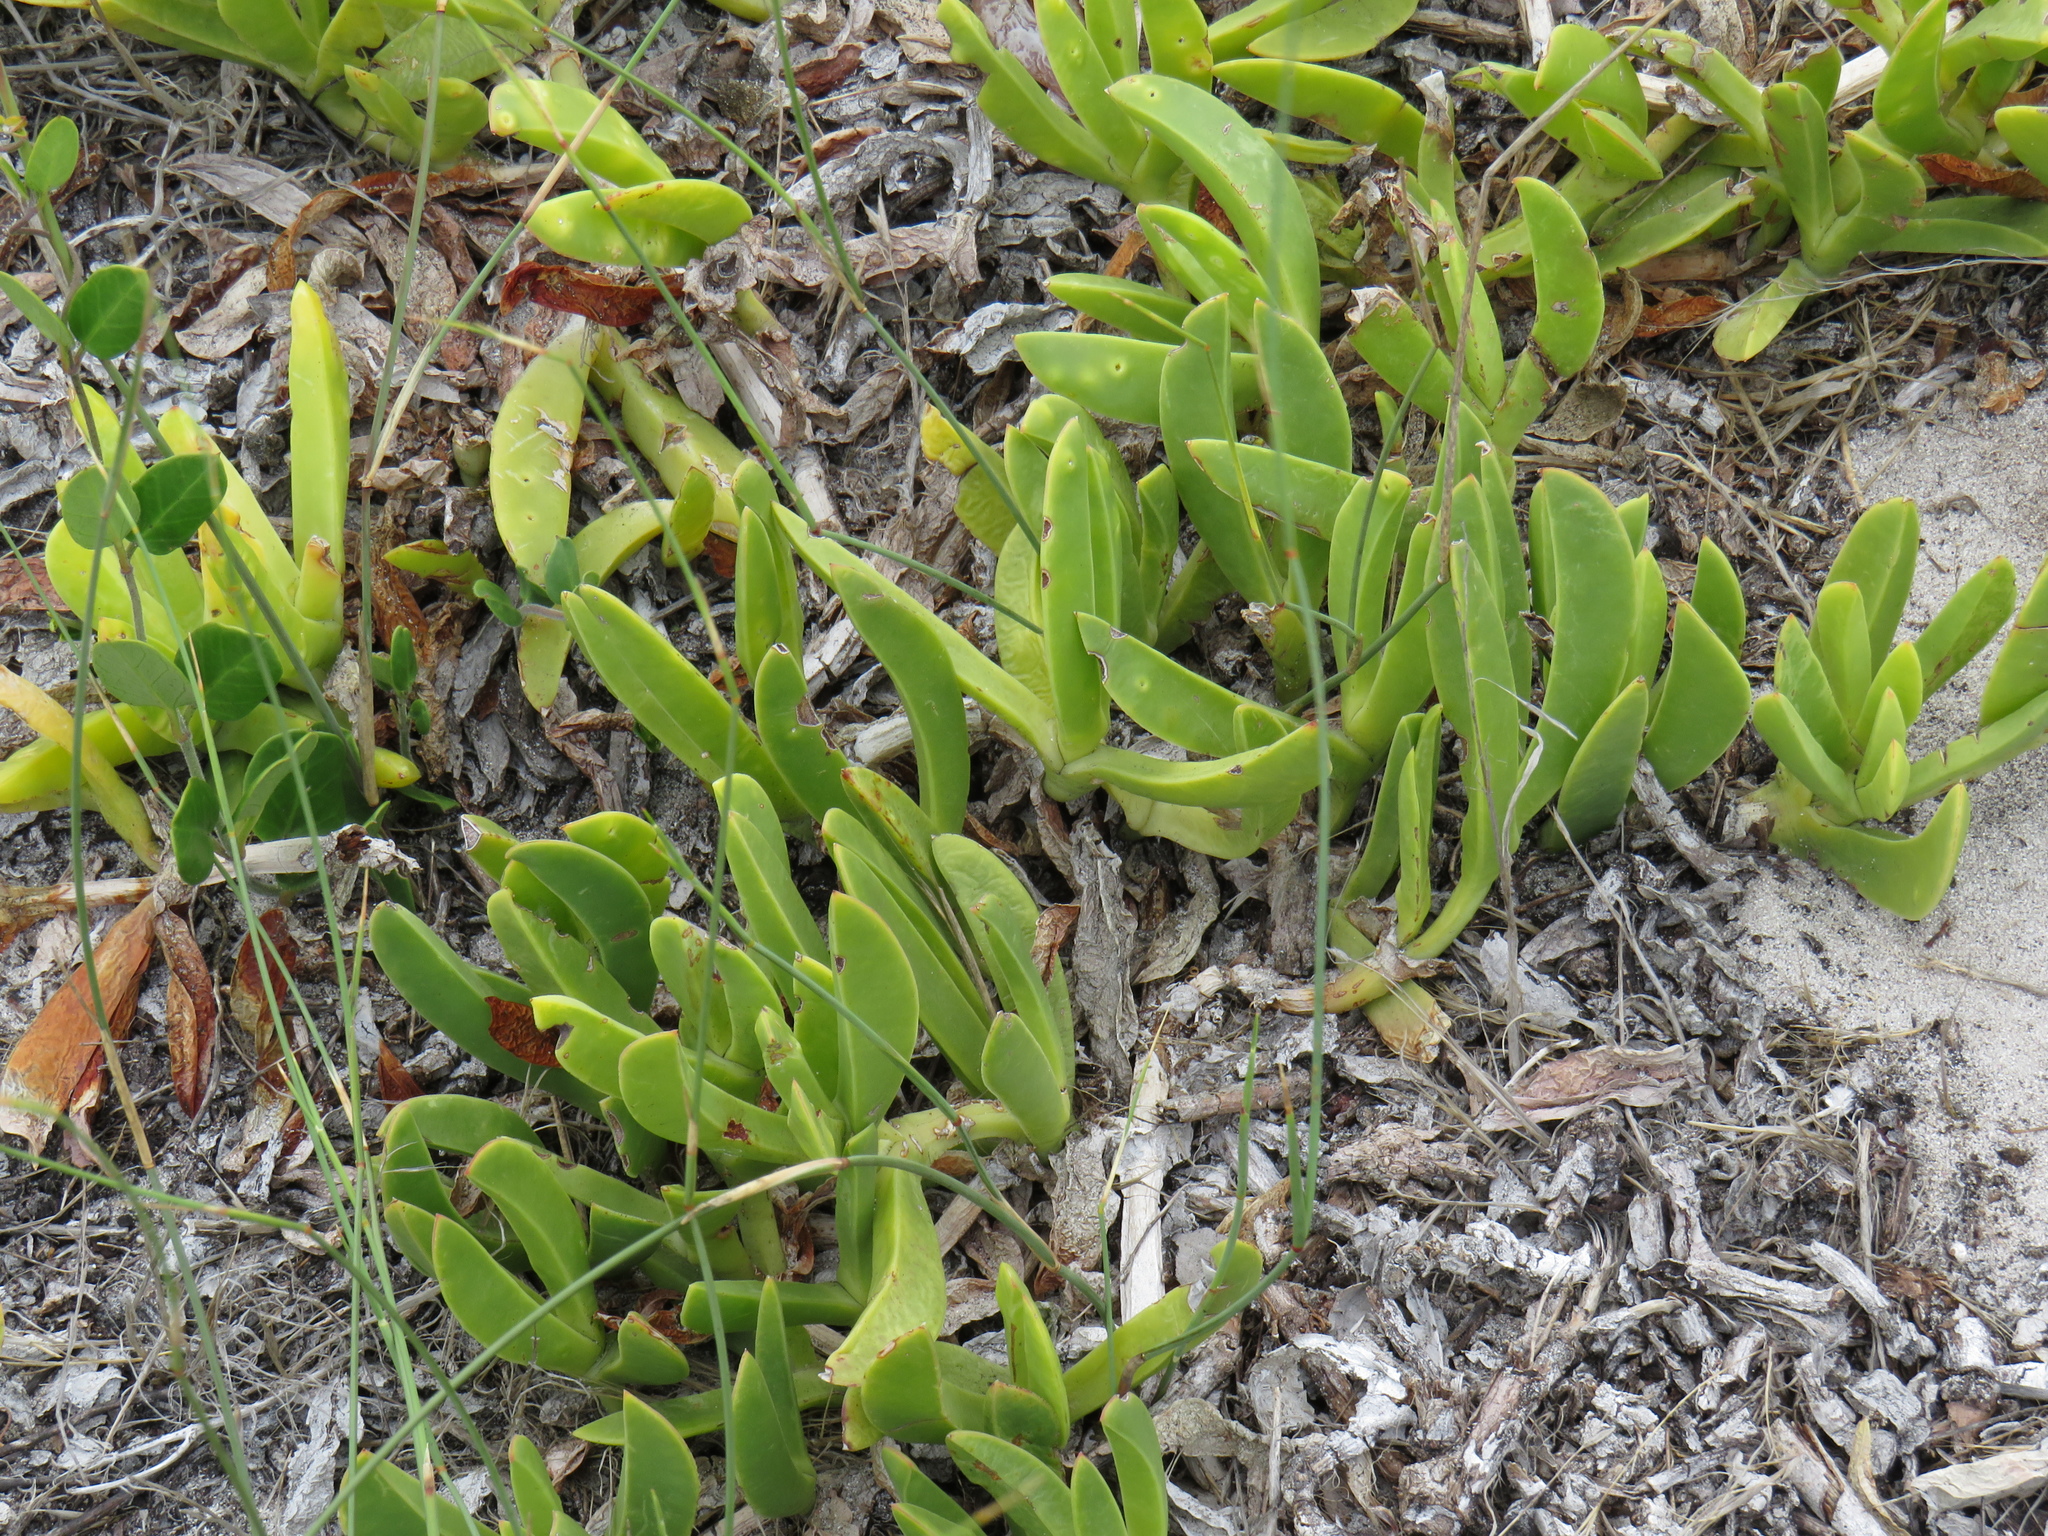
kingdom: Plantae
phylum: Tracheophyta
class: Magnoliopsida
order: Caryophyllales
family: Aizoaceae
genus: Carpobrotus
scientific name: Carpobrotus acinaciformis
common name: Sally-my-handsome
